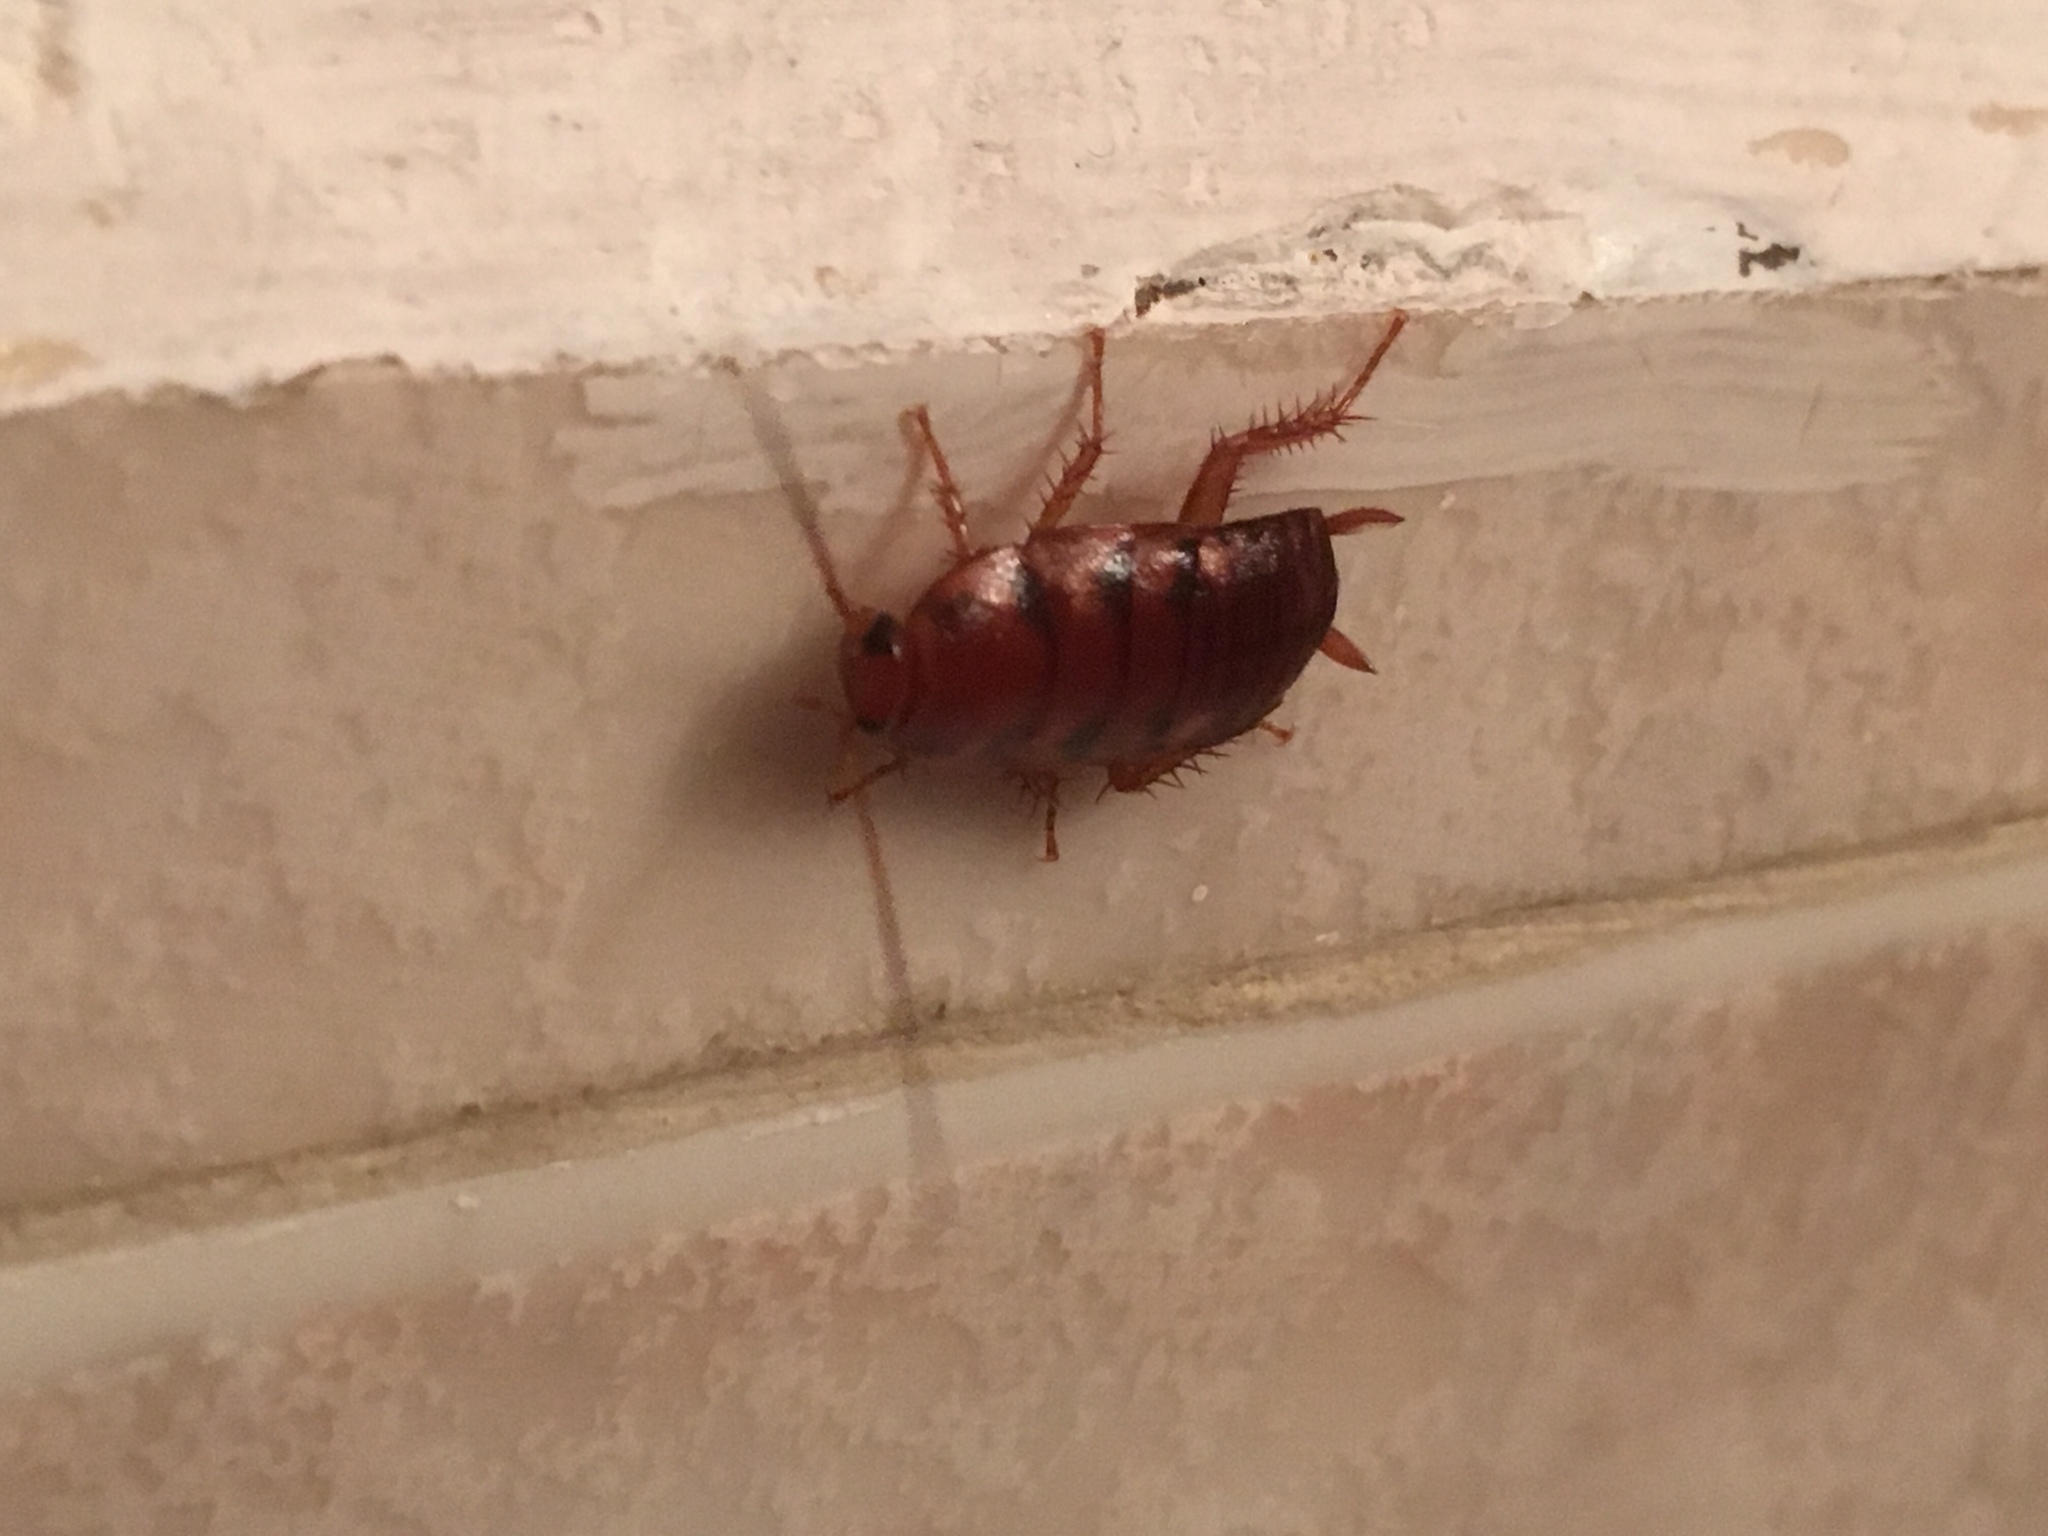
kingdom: Animalia
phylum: Arthropoda
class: Insecta
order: Blattodea
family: Blattidae
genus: Periplaneta
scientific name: Periplaneta brunnea
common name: Brown cockroach
